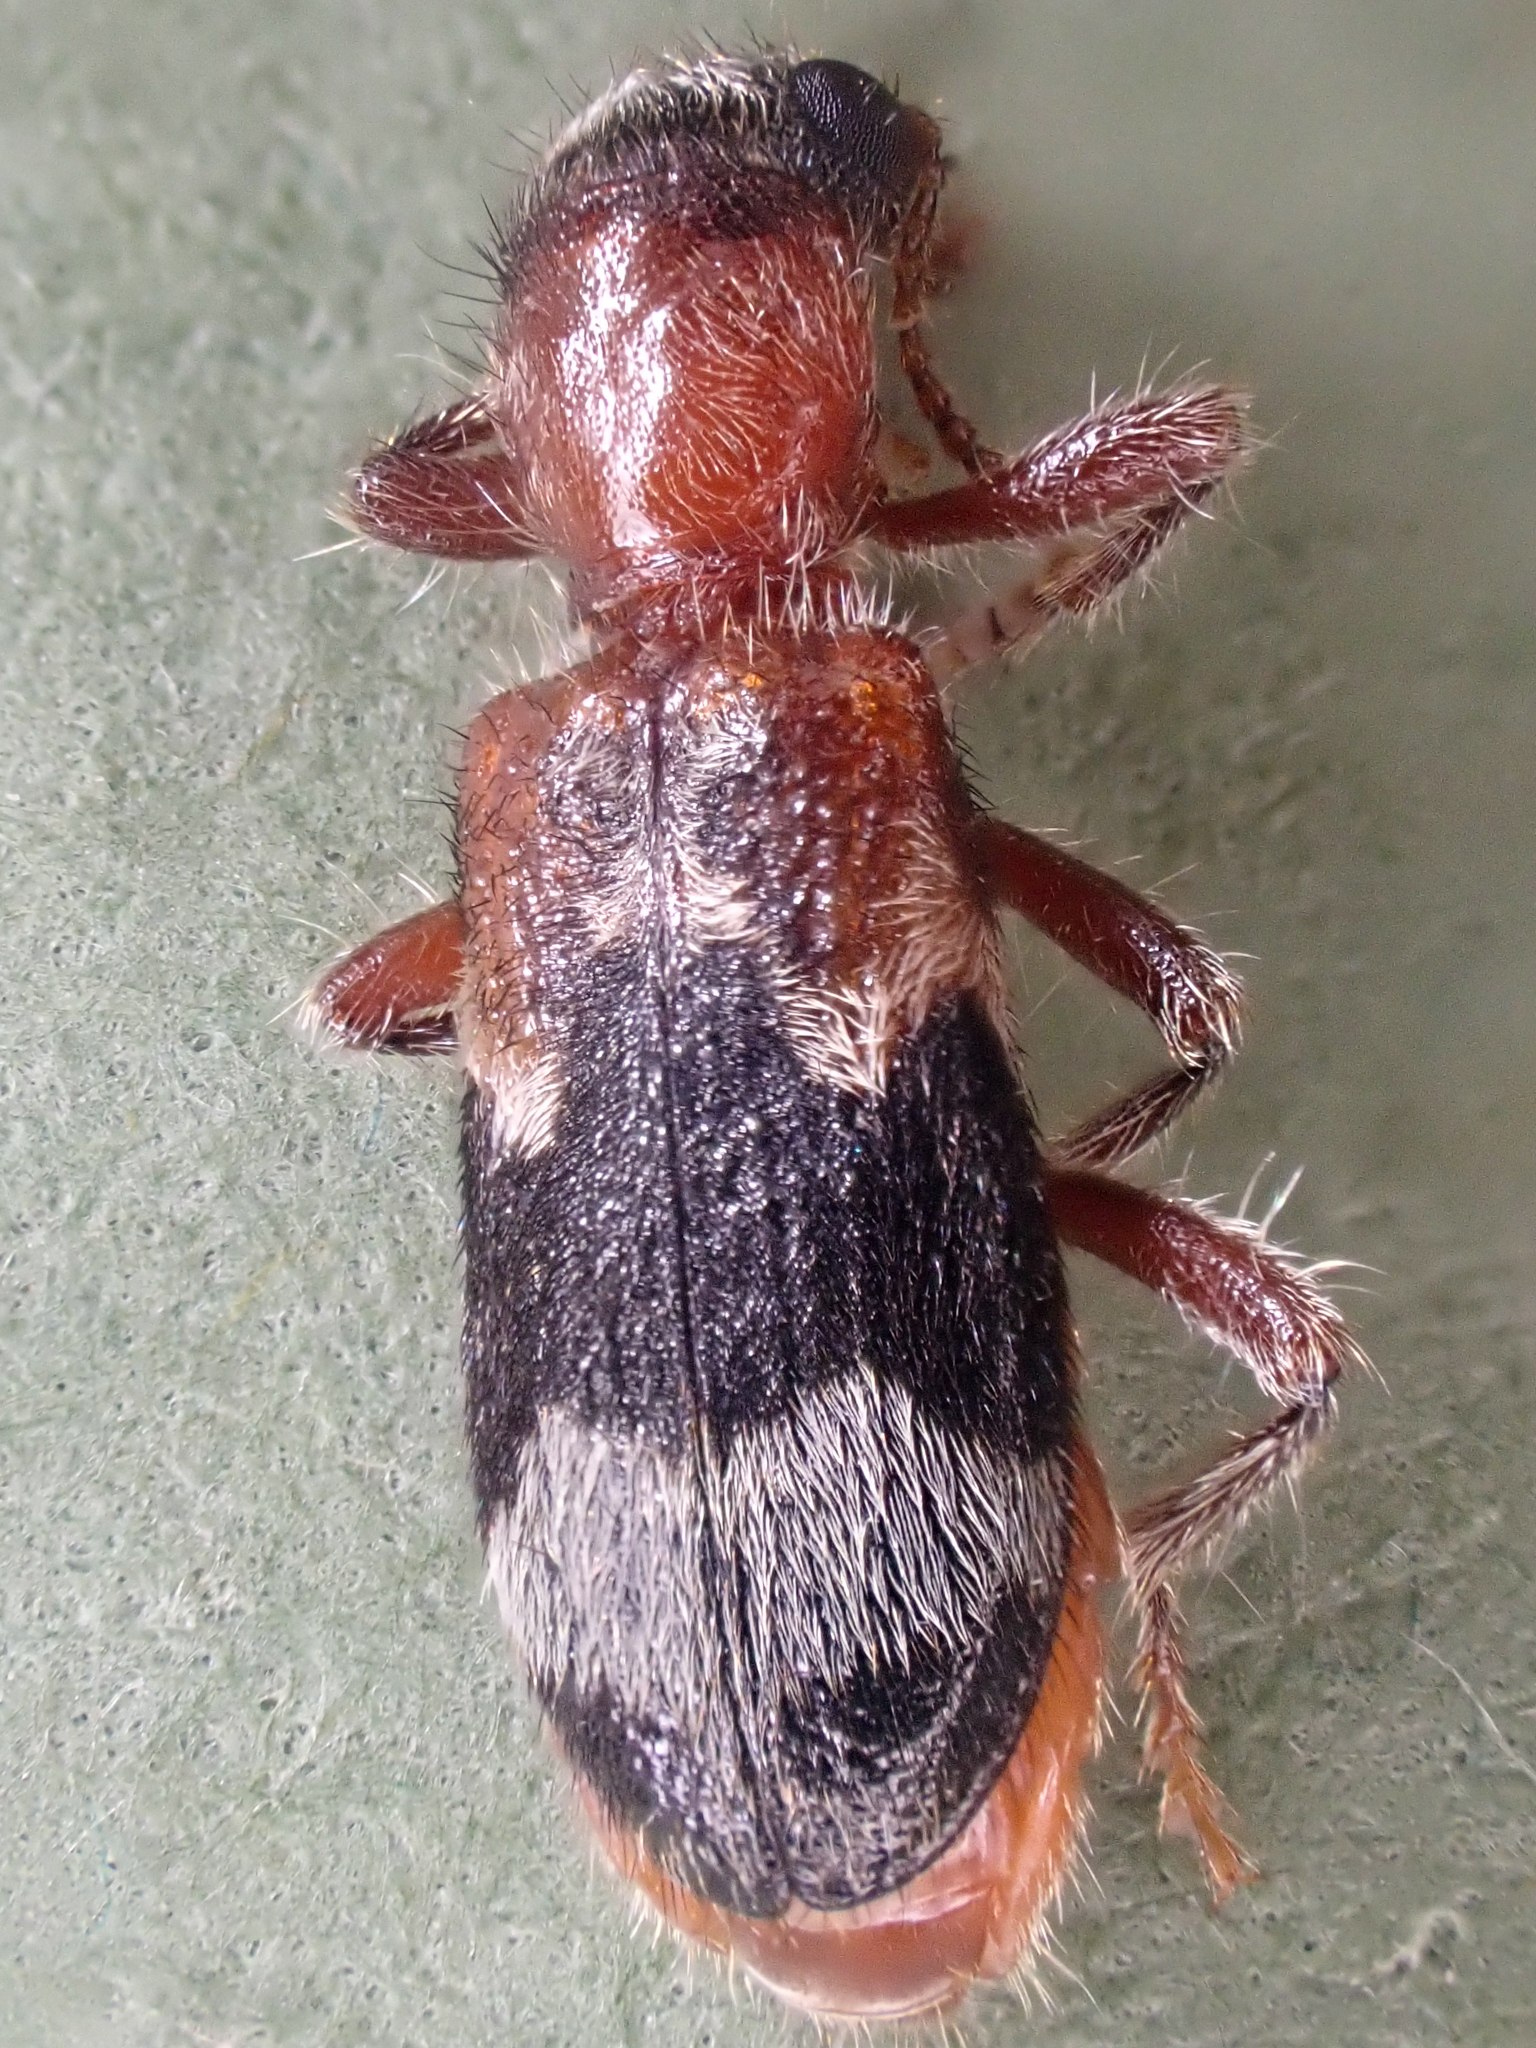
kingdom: Animalia
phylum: Arthropoda
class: Insecta
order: Coleoptera
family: Cleridae
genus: Thanasimus
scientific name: Thanasimus undatulus
